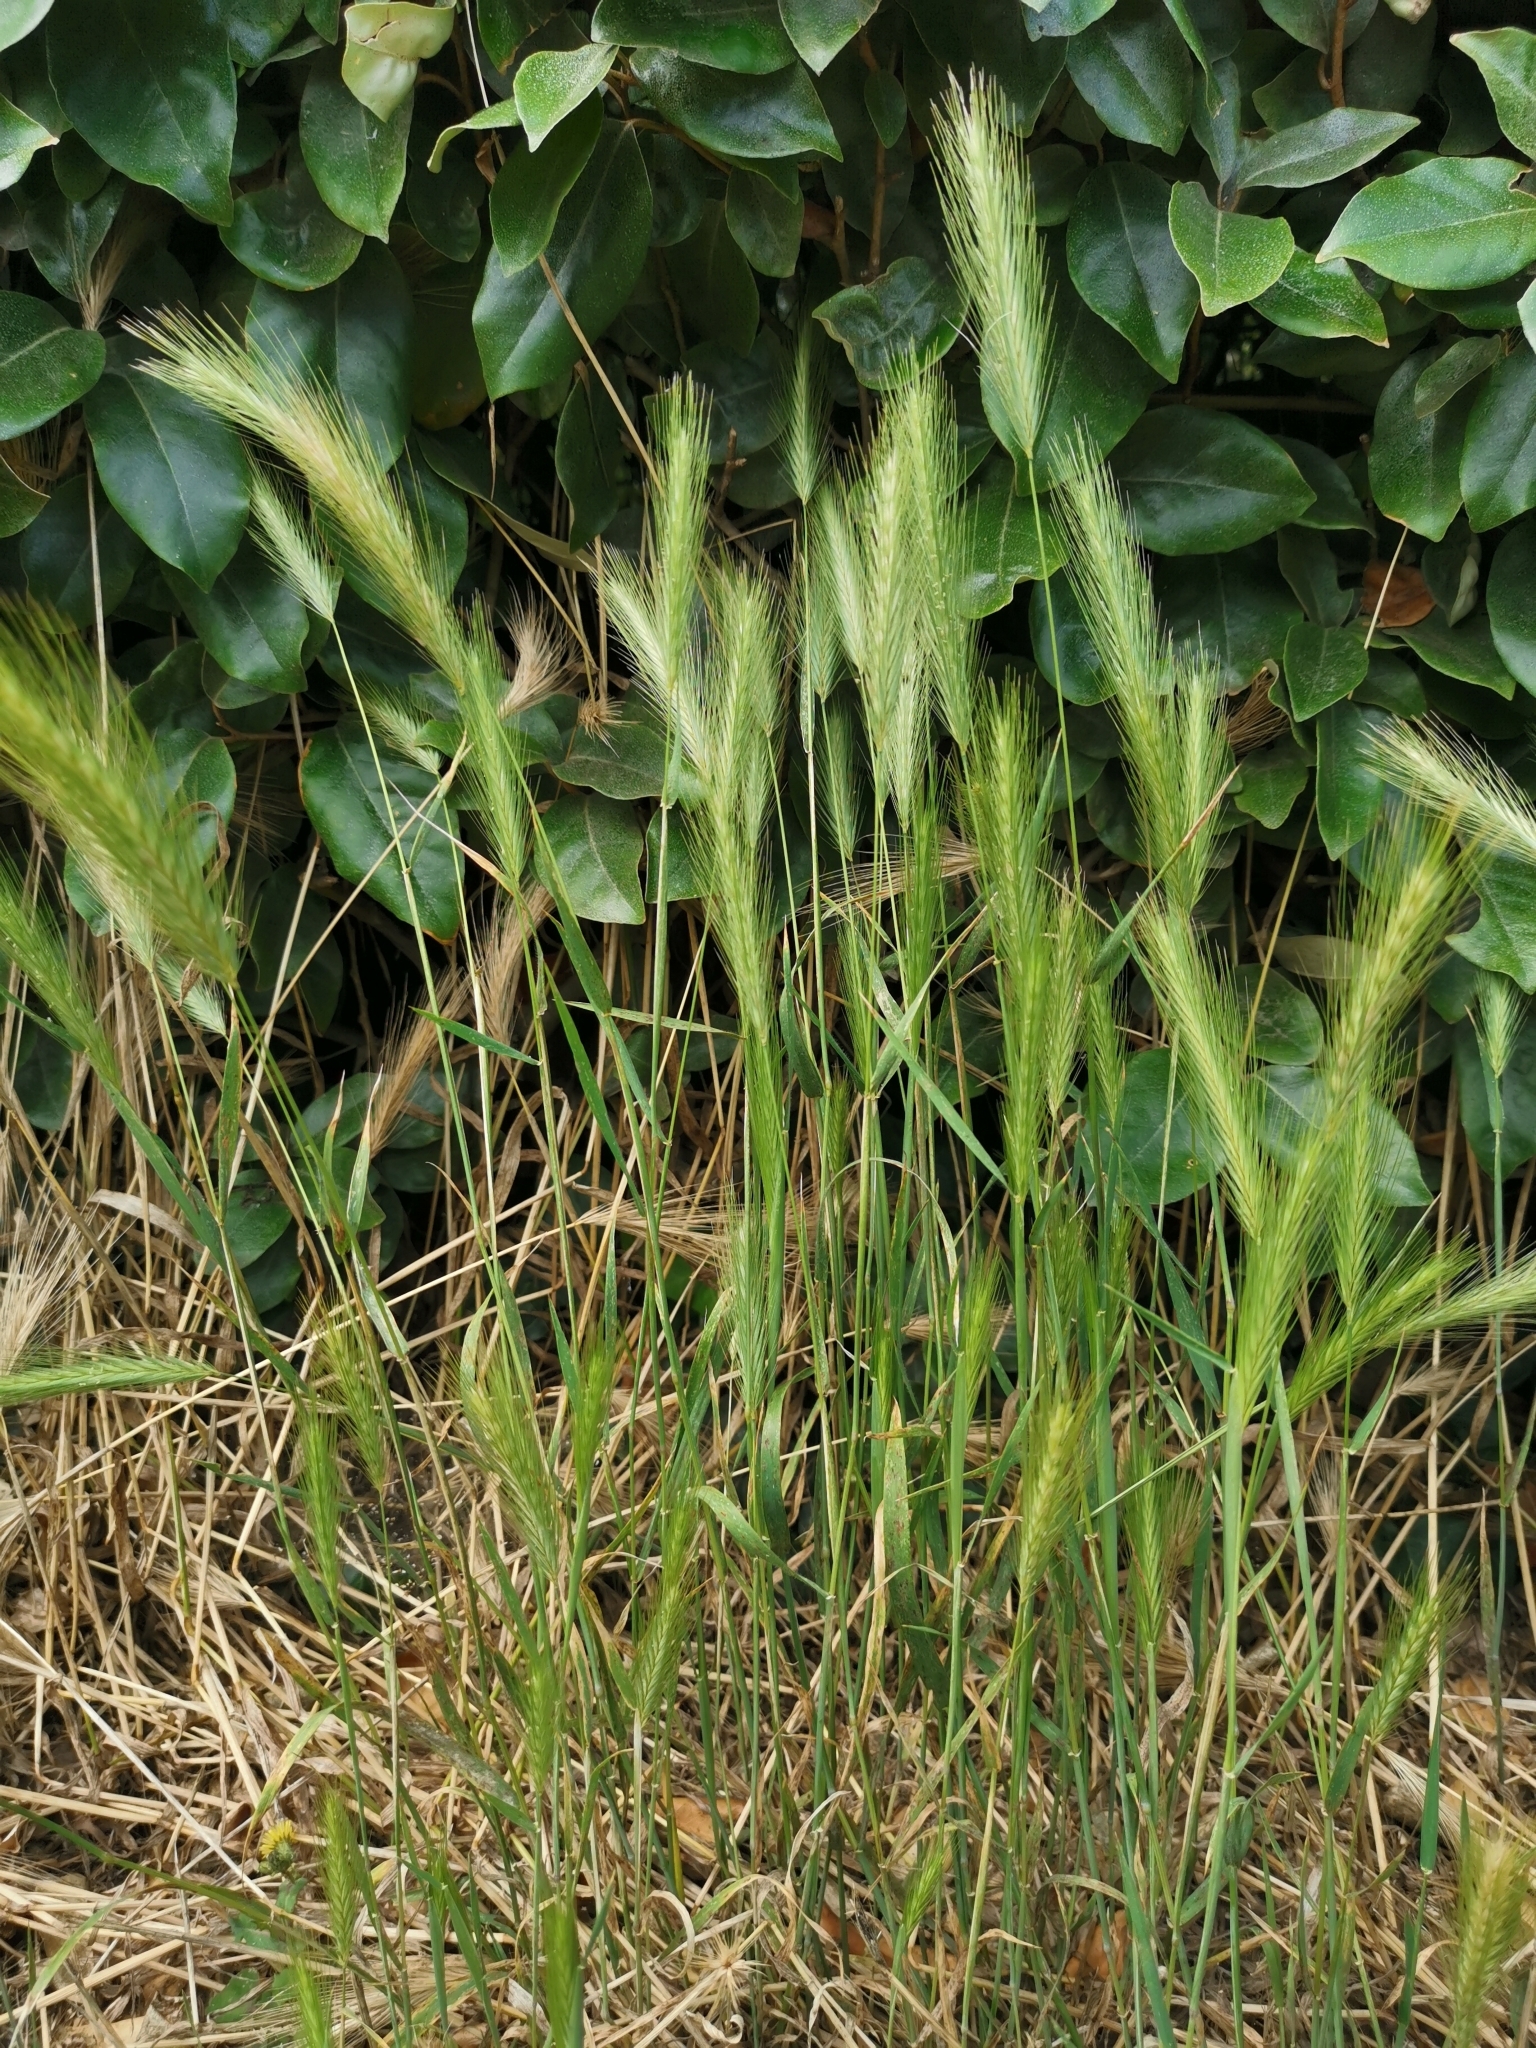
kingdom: Plantae
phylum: Tracheophyta
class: Liliopsida
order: Poales
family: Poaceae
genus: Hordeum
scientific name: Hordeum murinum
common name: Wall barley
